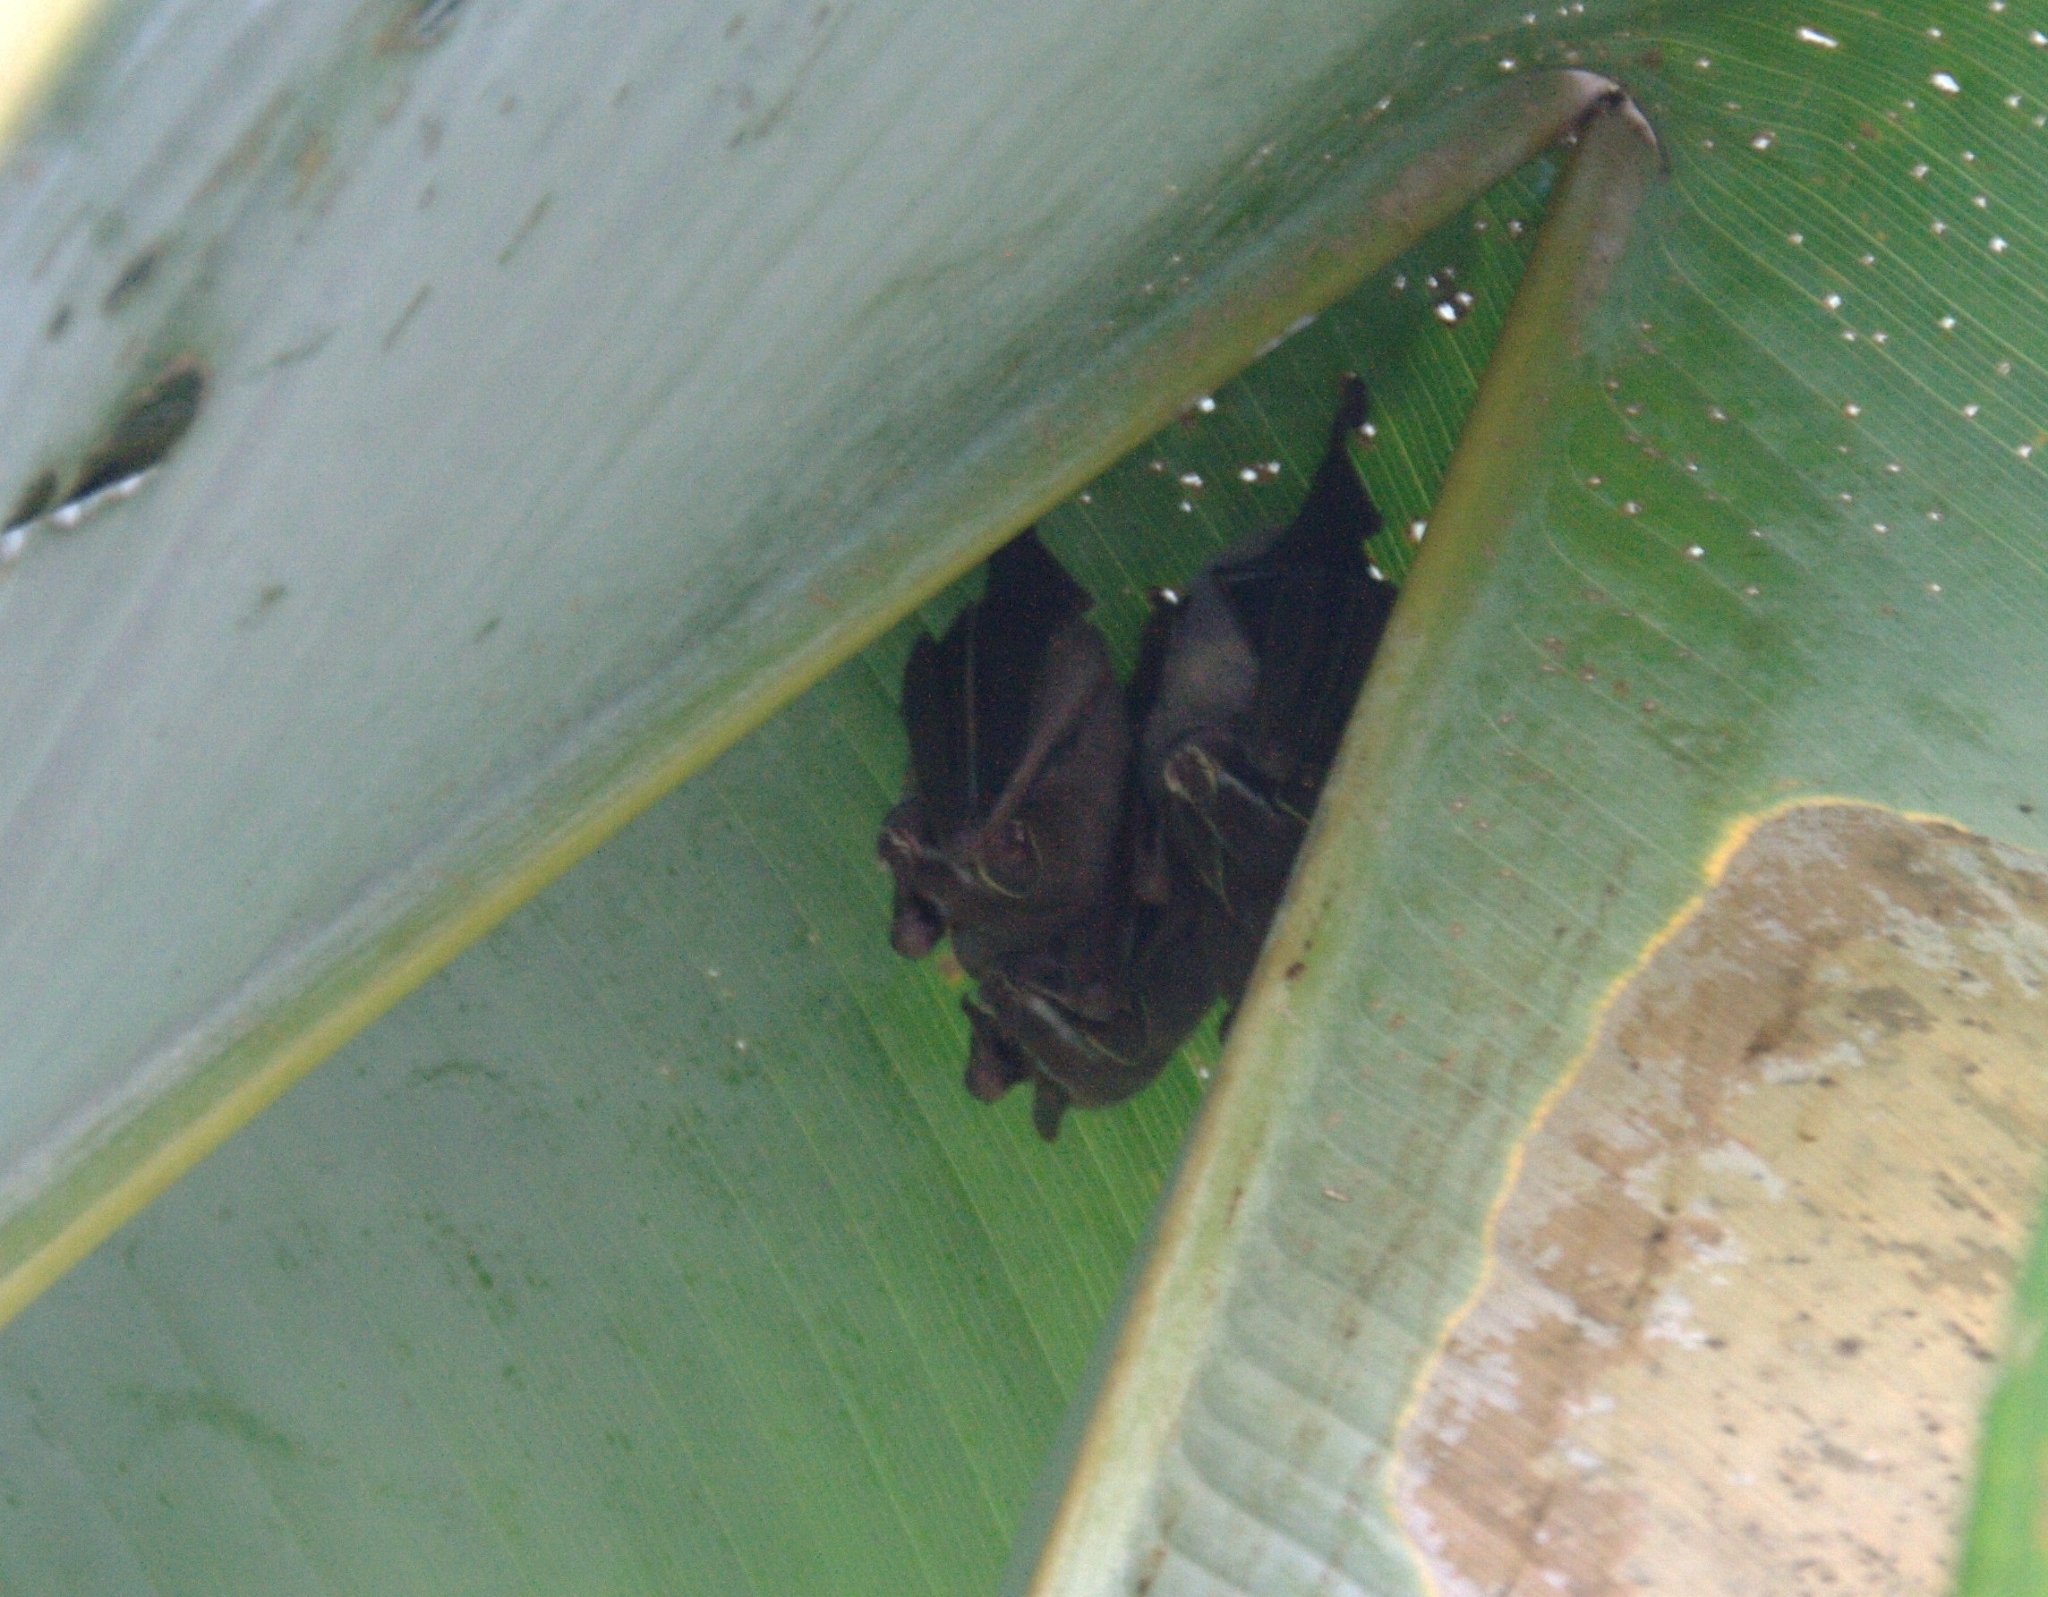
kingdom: Animalia
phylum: Chordata
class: Mammalia
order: Chiroptera
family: Phyllostomidae
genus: Uroderma
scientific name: Uroderma bilobatum
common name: Common tent-making bat
